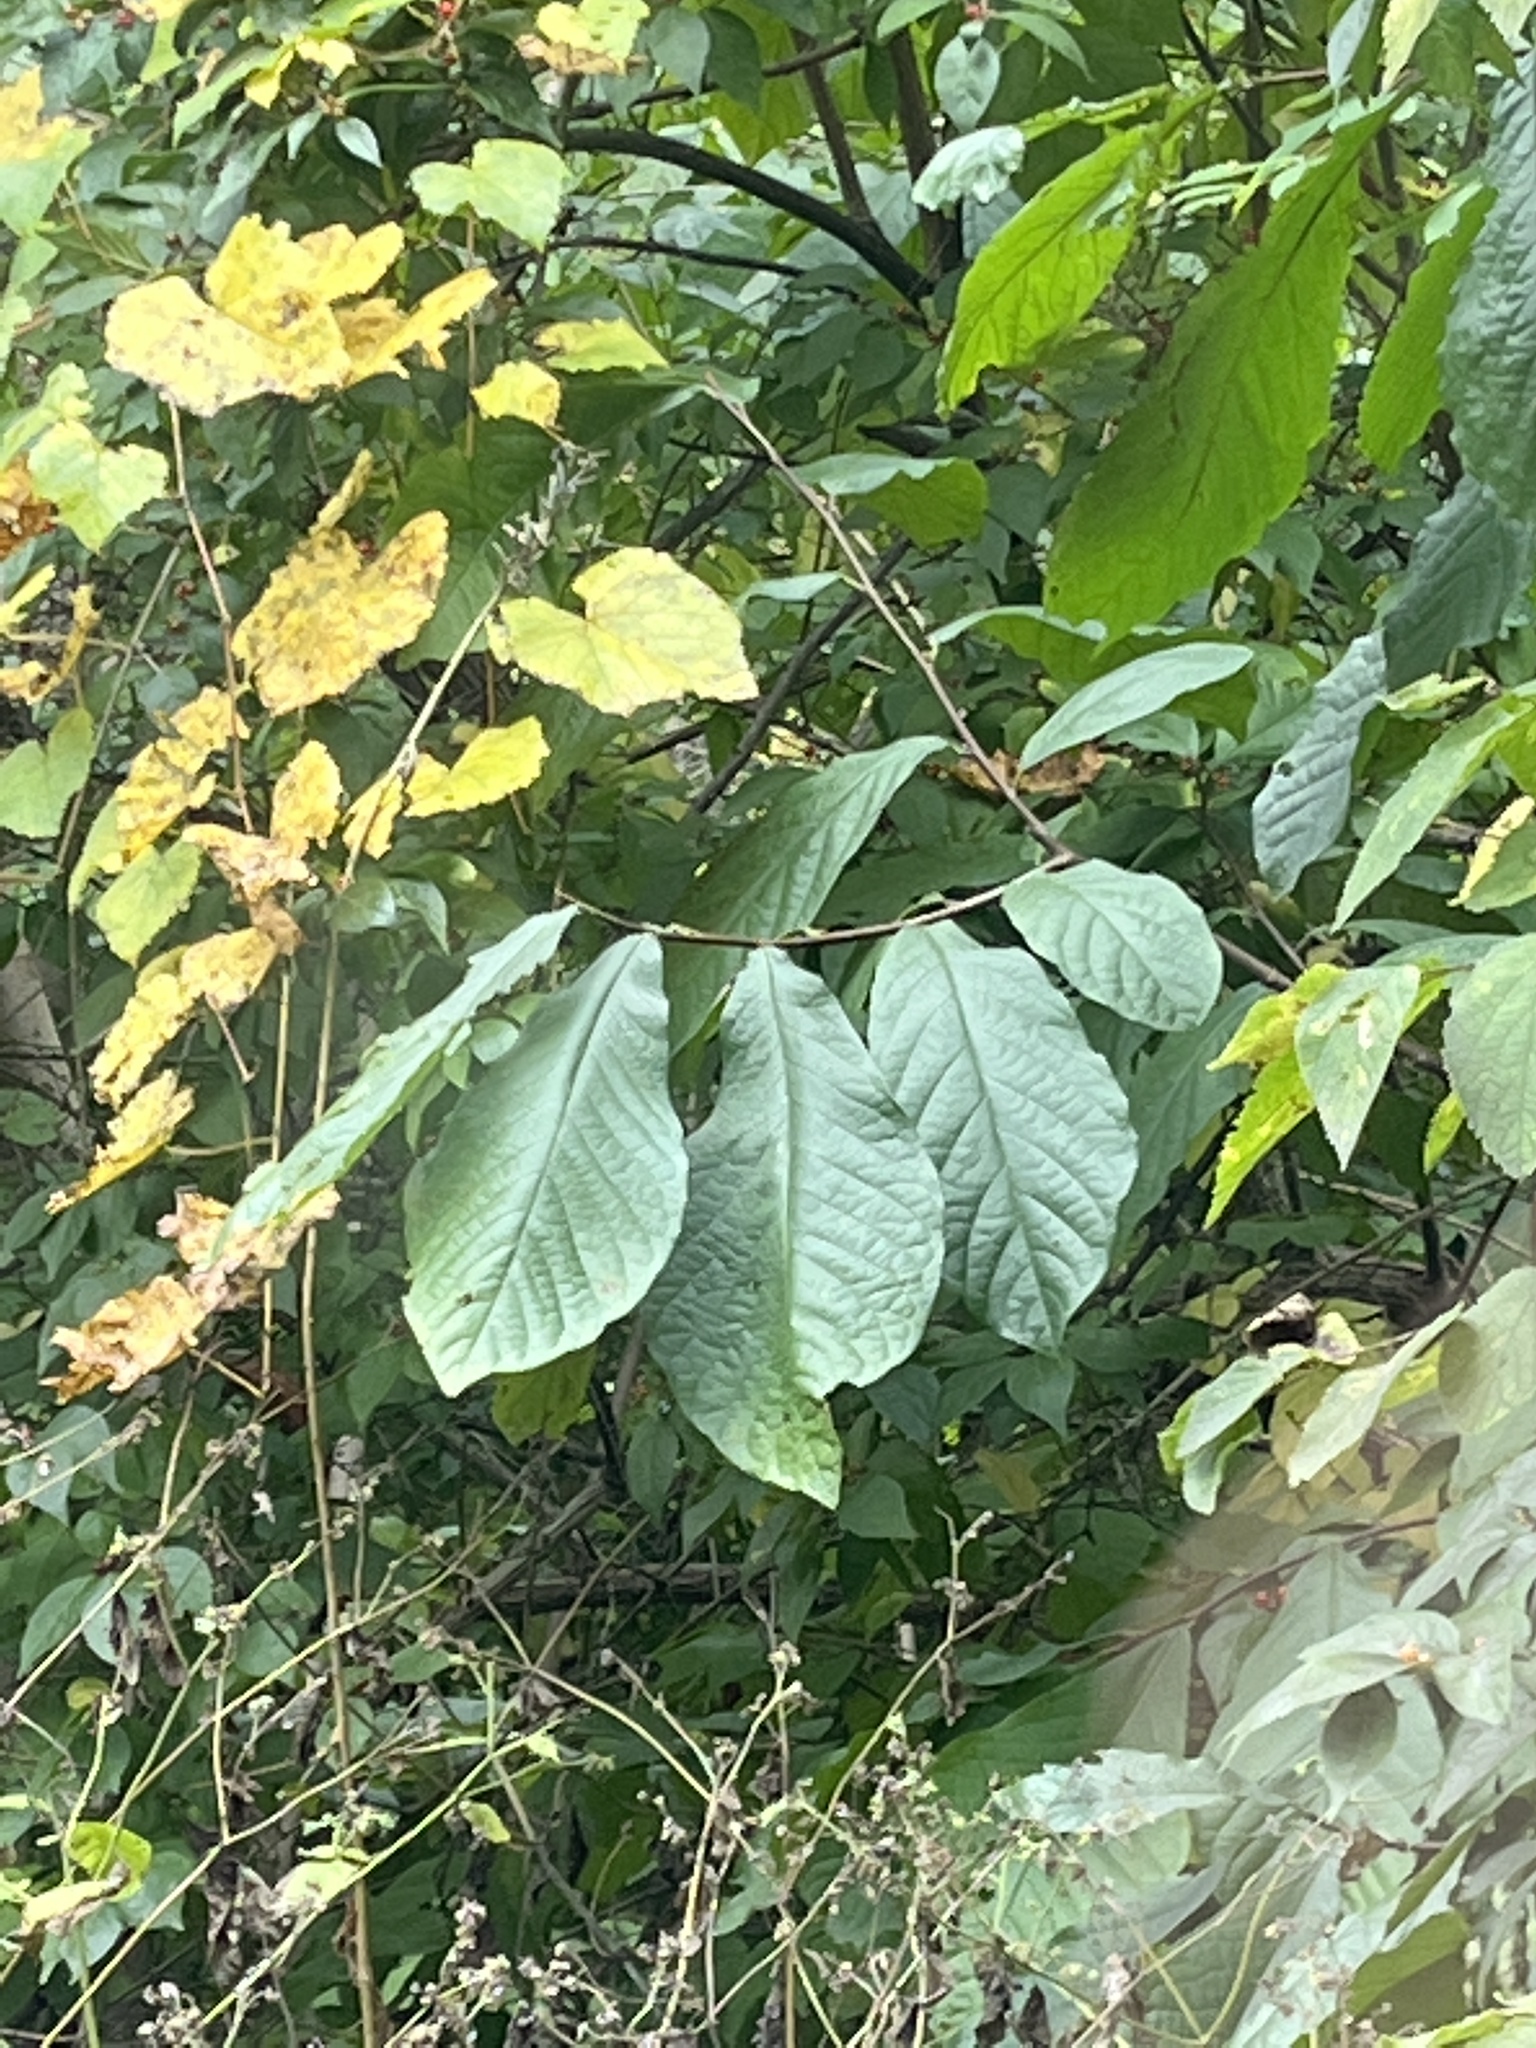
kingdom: Plantae
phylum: Tracheophyta
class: Magnoliopsida
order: Magnoliales
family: Annonaceae
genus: Asimina
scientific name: Asimina triloba
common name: Dog-banana
